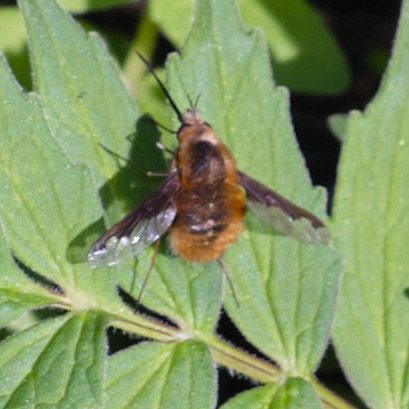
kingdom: Animalia
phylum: Arthropoda
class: Insecta
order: Diptera
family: Bombyliidae
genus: Bombylius
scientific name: Bombylius major
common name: Bee fly
